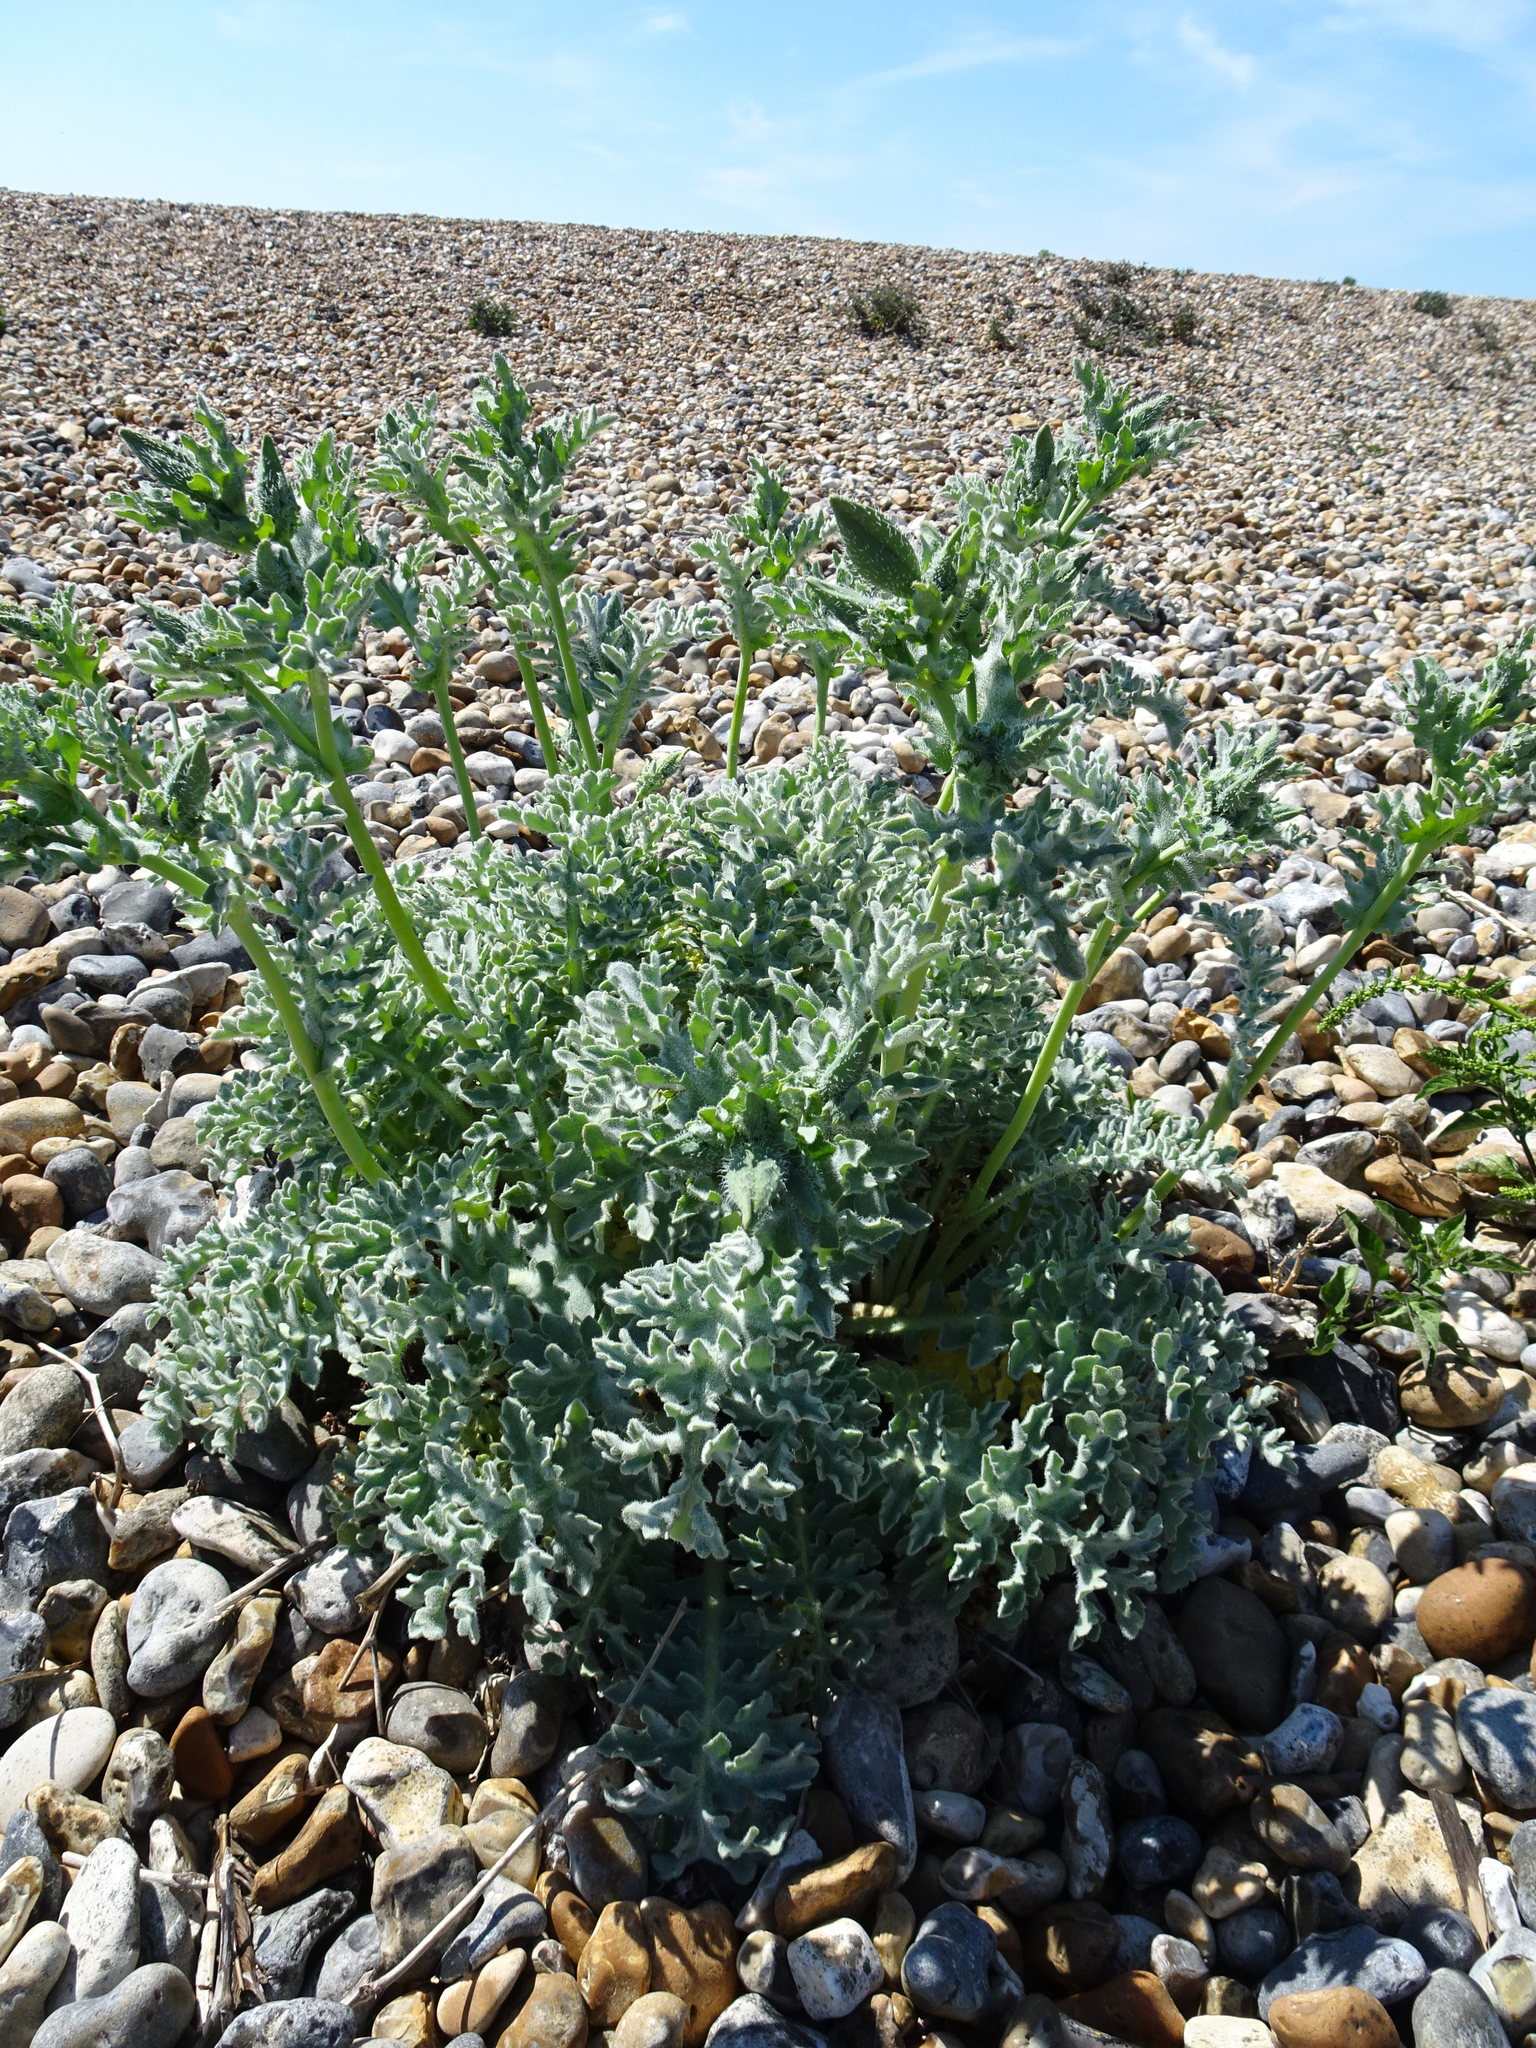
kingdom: Plantae
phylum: Tracheophyta
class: Magnoliopsida
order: Ranunculales
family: Papaveraceae
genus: Glaucium
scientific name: Glaucium flavum
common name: Yellow horned-poppy
